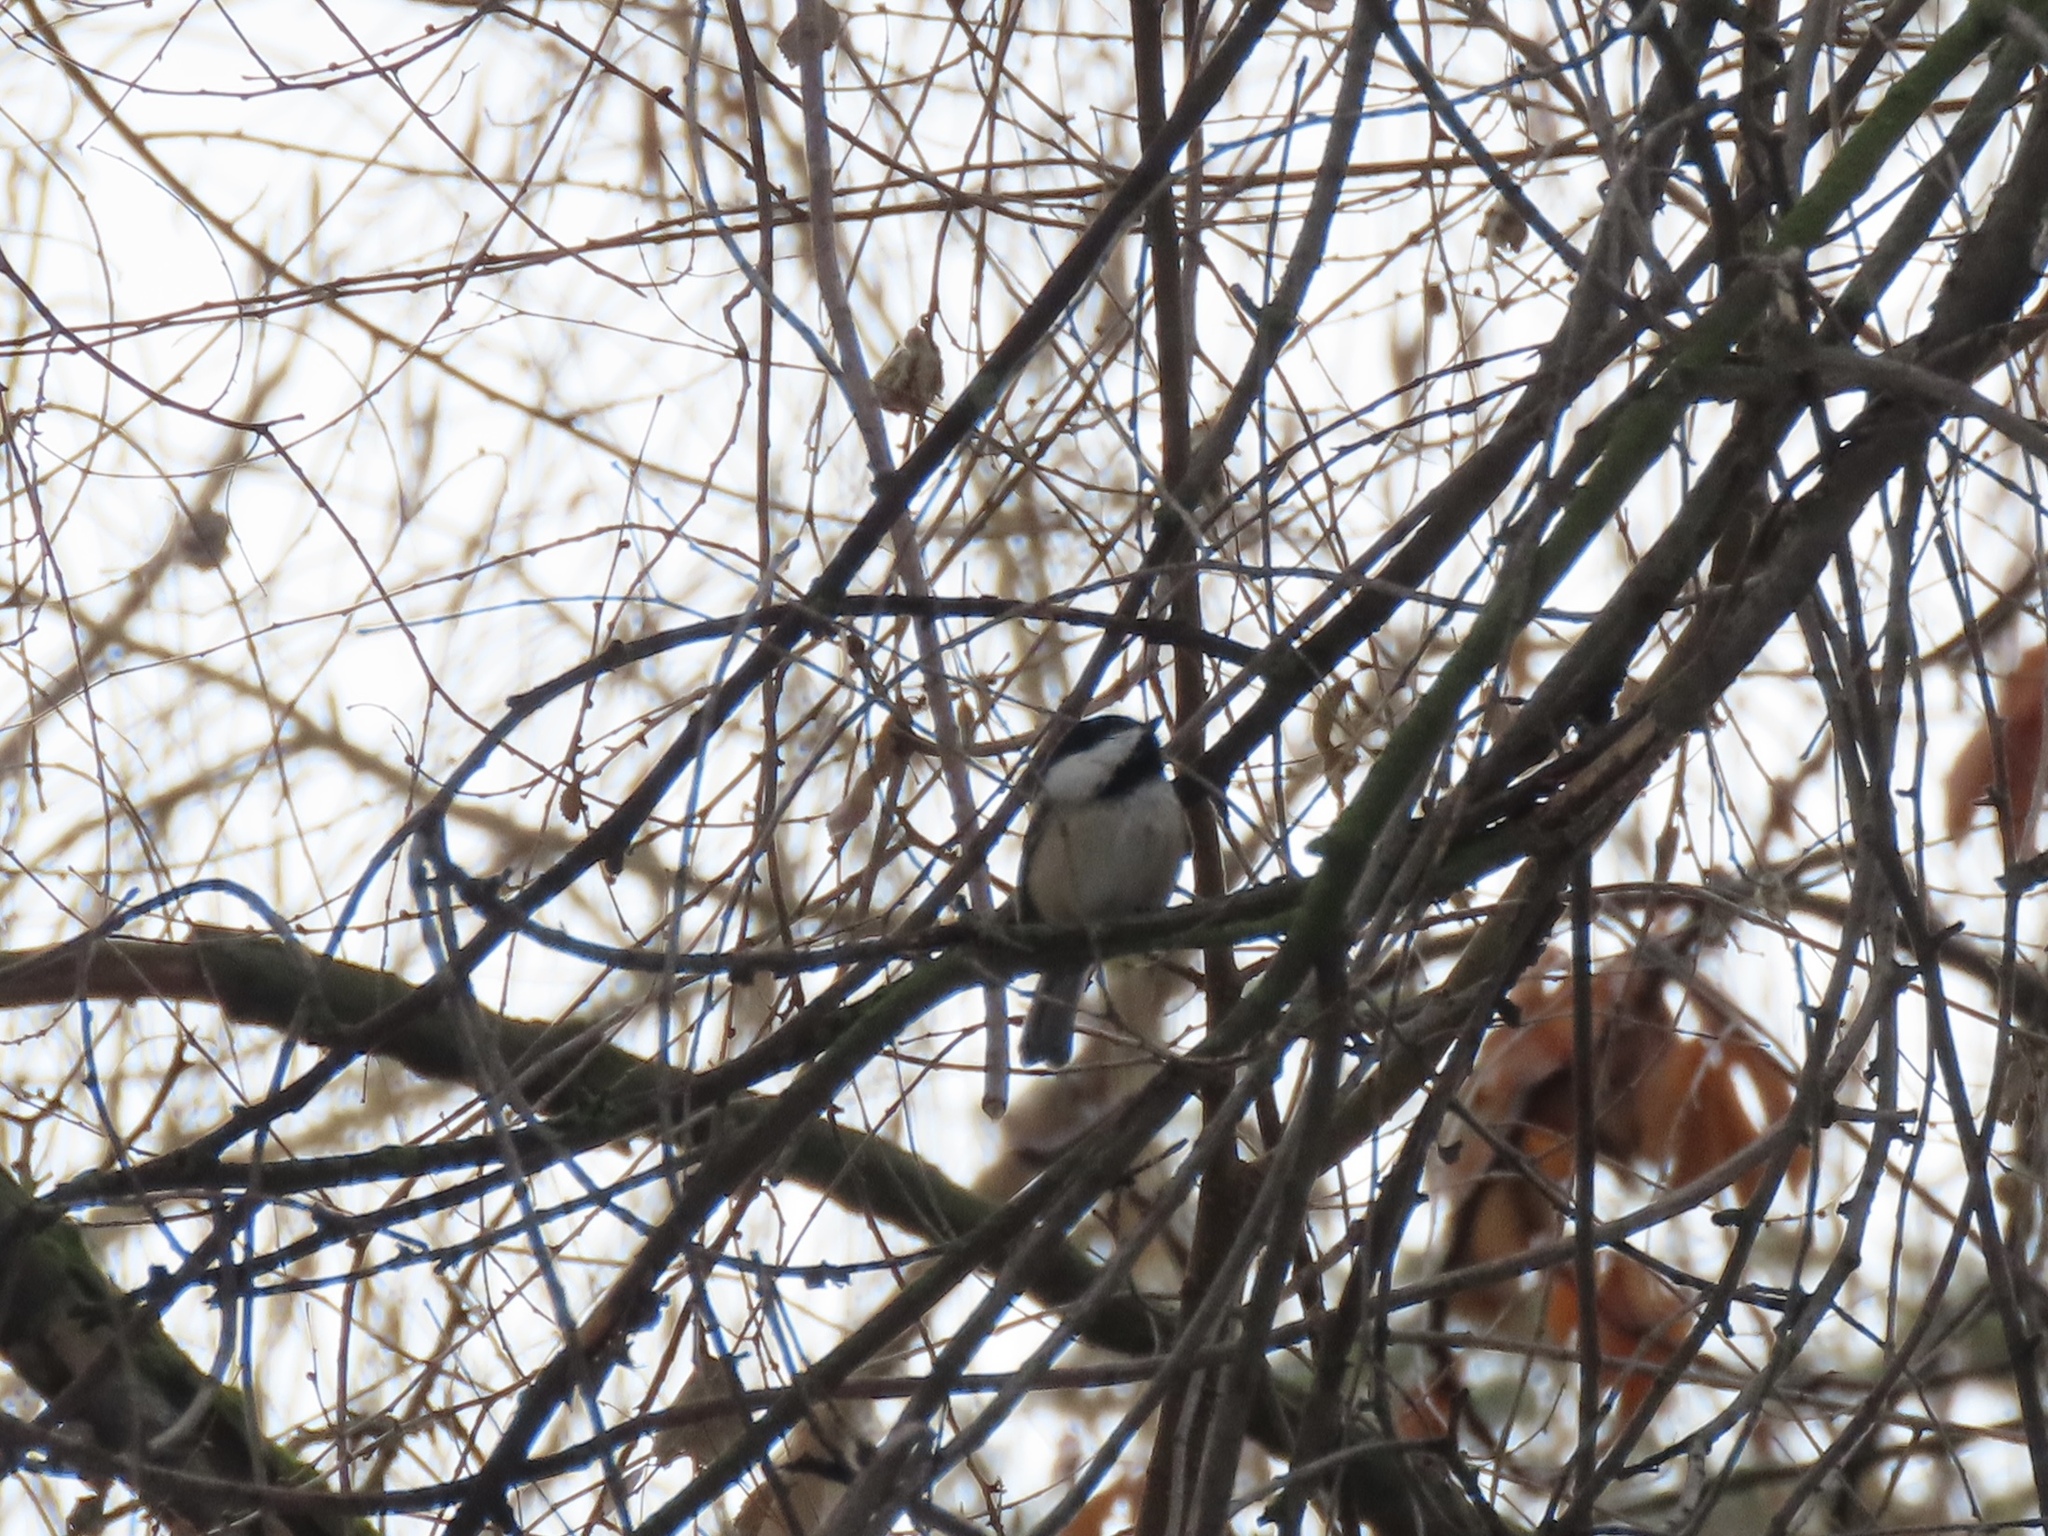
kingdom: Animalia
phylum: Chordata
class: Aves
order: Passeriformes
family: Paridae
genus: Poecile
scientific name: Poecile atricapillus
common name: Black-capped chickadee
